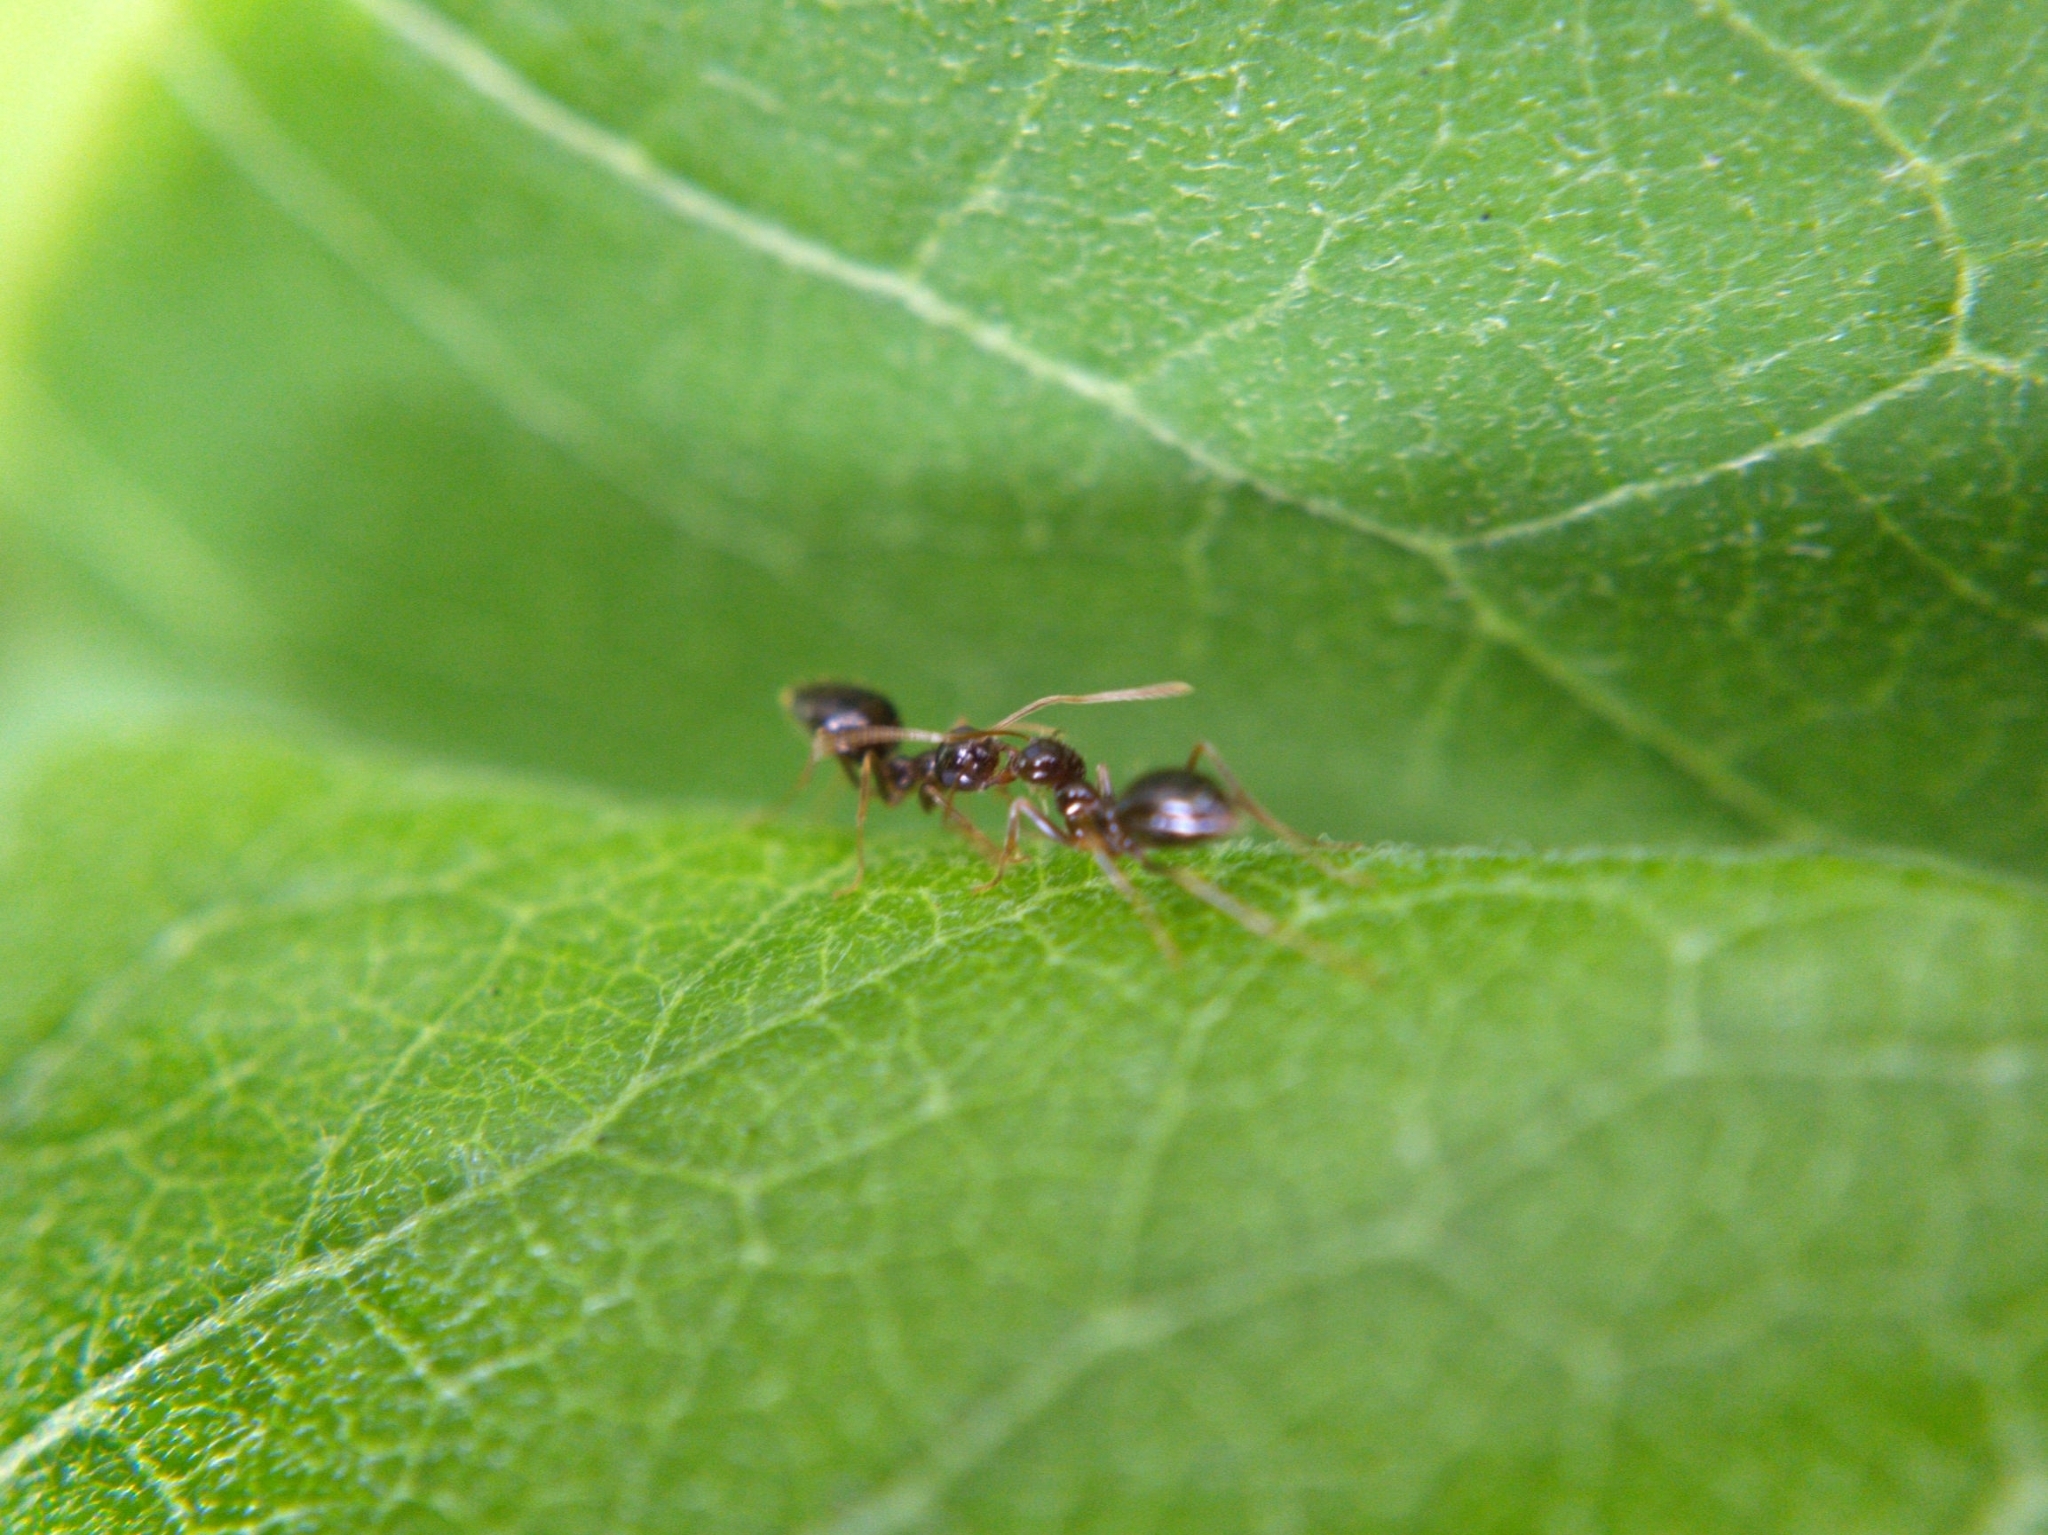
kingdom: Animalia
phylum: Arthropoda
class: Insecta
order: Hymenoptera
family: Formicidae
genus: Prenolepis
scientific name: Prenolepis imparis
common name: Small honey ant
